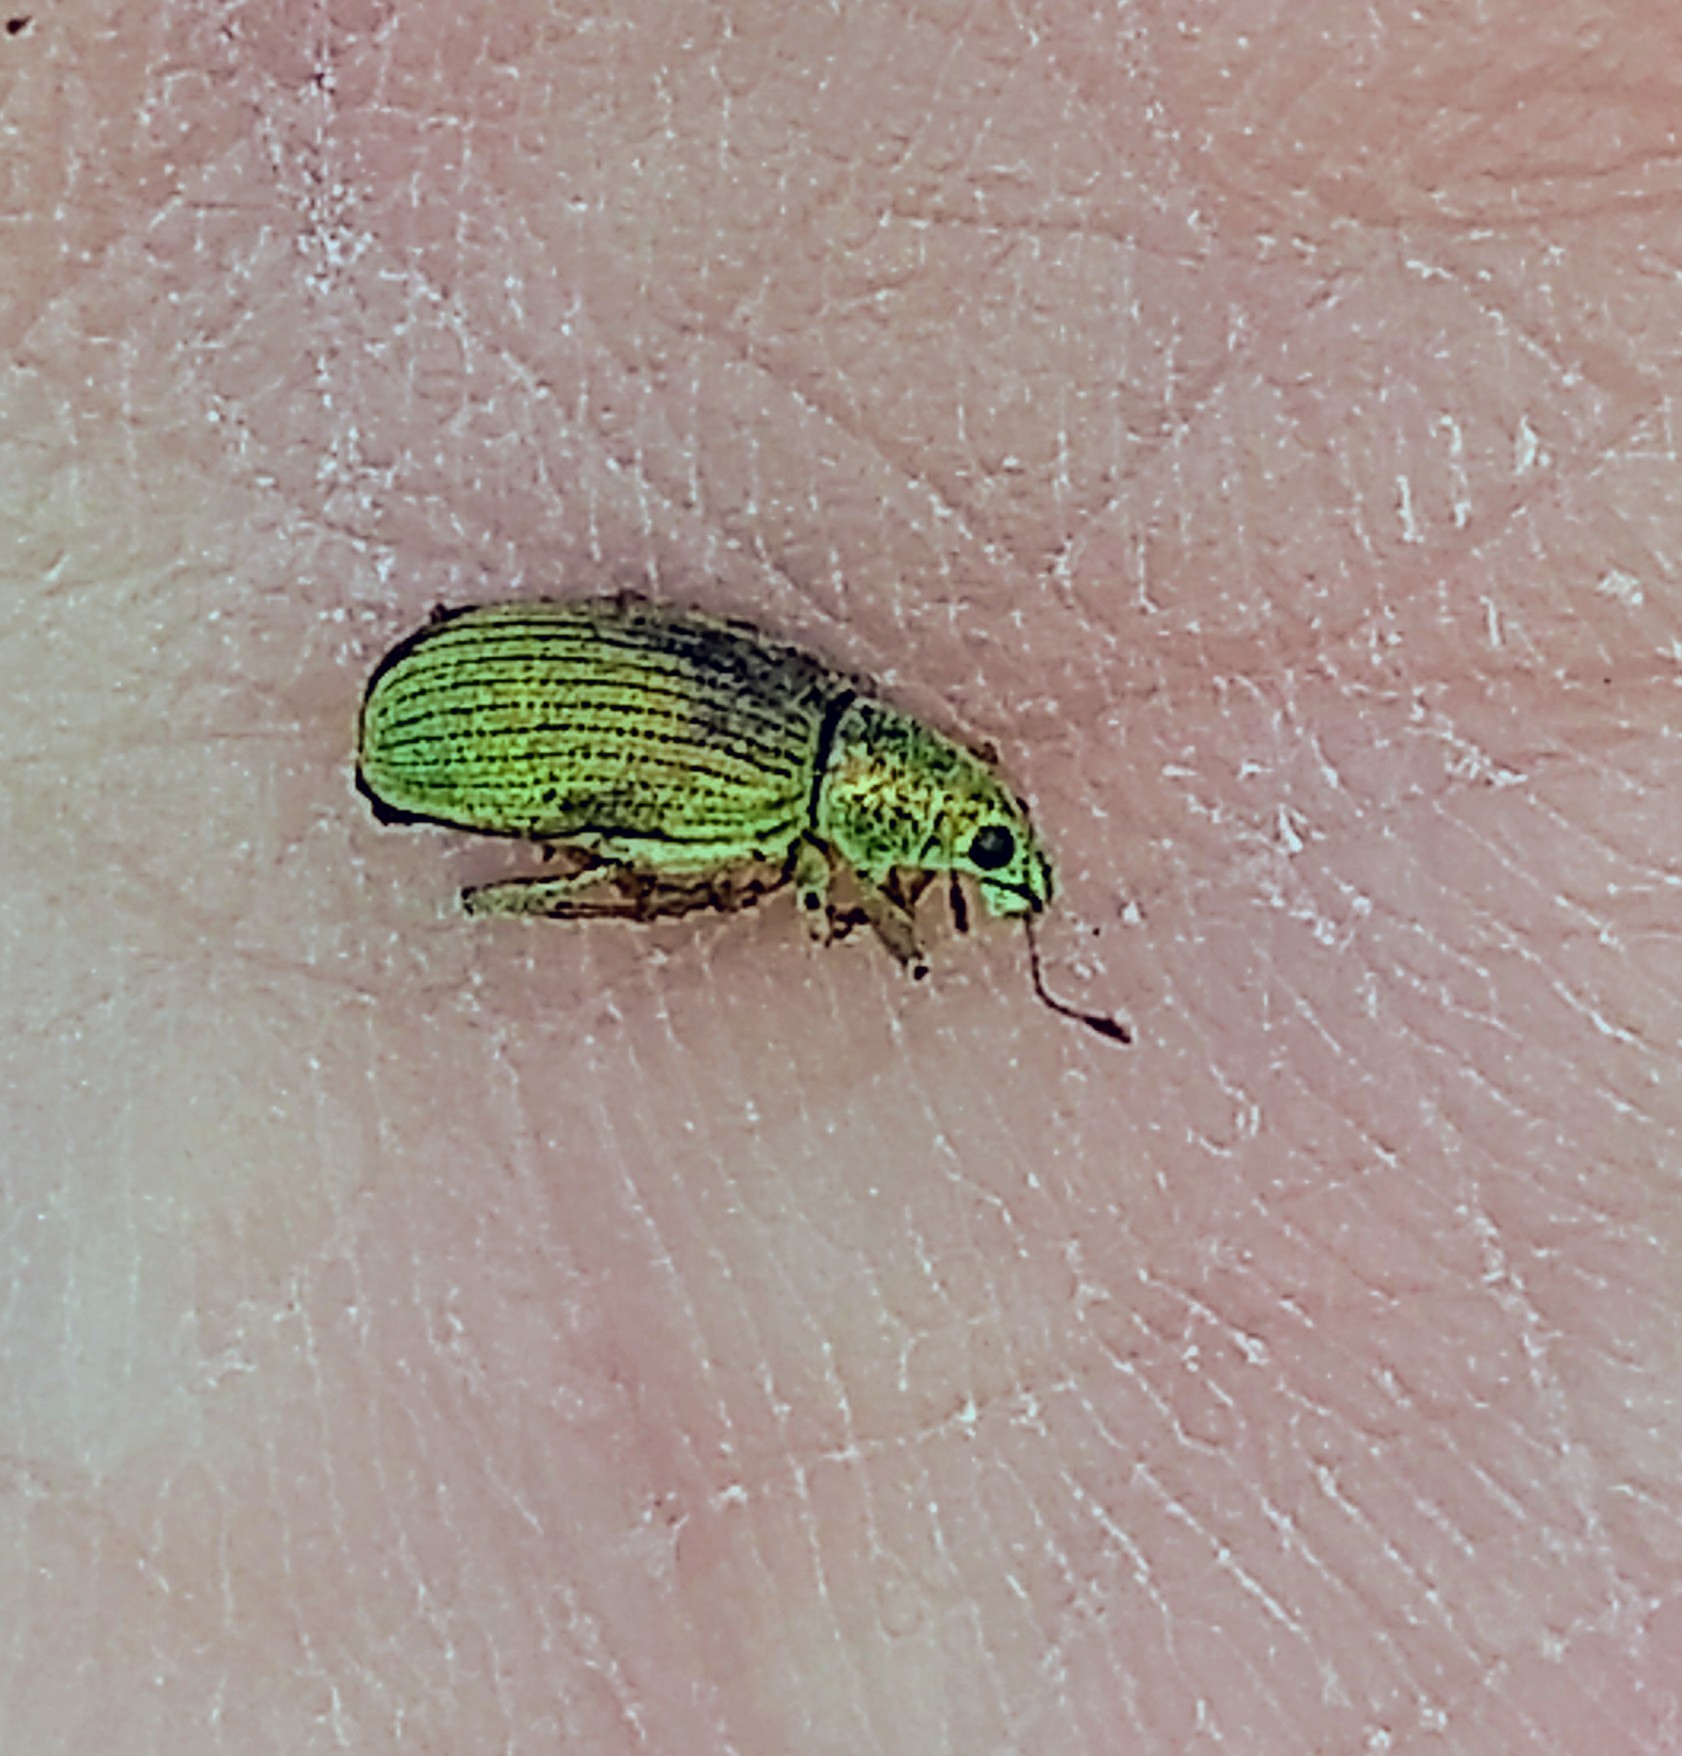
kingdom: Animalia
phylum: Arthropoda
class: Insecta
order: Coleoptera
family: Curculionidae
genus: Polydrusus
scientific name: Polydrusus formosus
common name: Weevil
